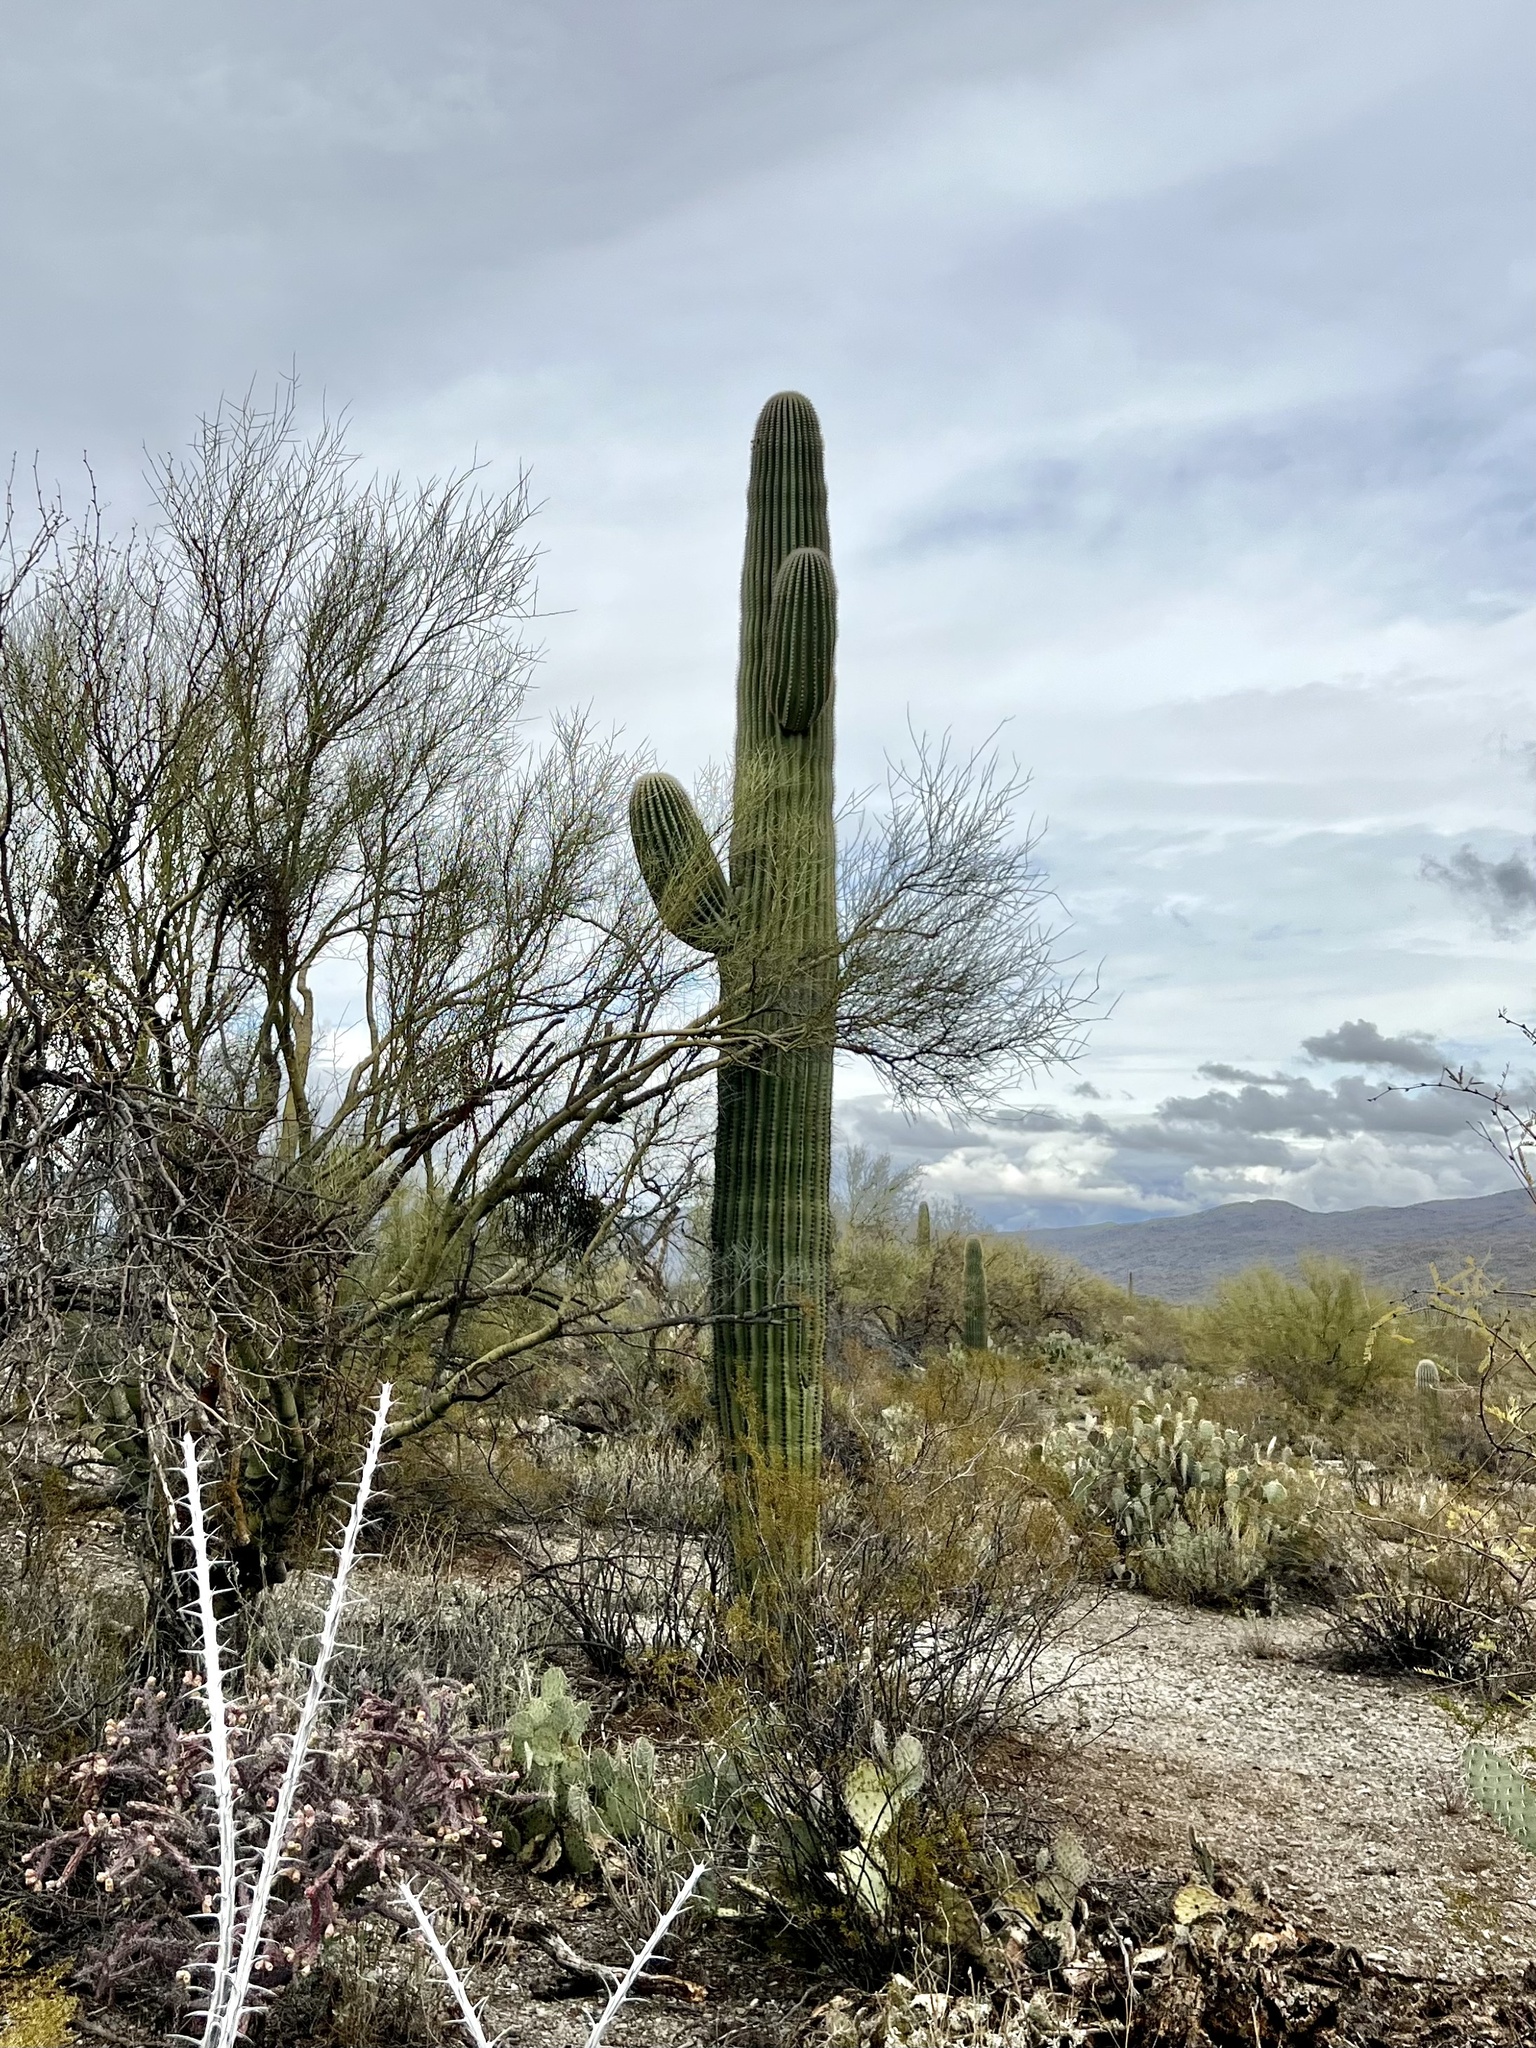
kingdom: Plantae
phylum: Tracheophyta
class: Magnoliopsida
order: Caryophyllales
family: Cactaceae
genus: Carnegiea
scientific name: Carnegiea gigantea
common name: Saguaro
